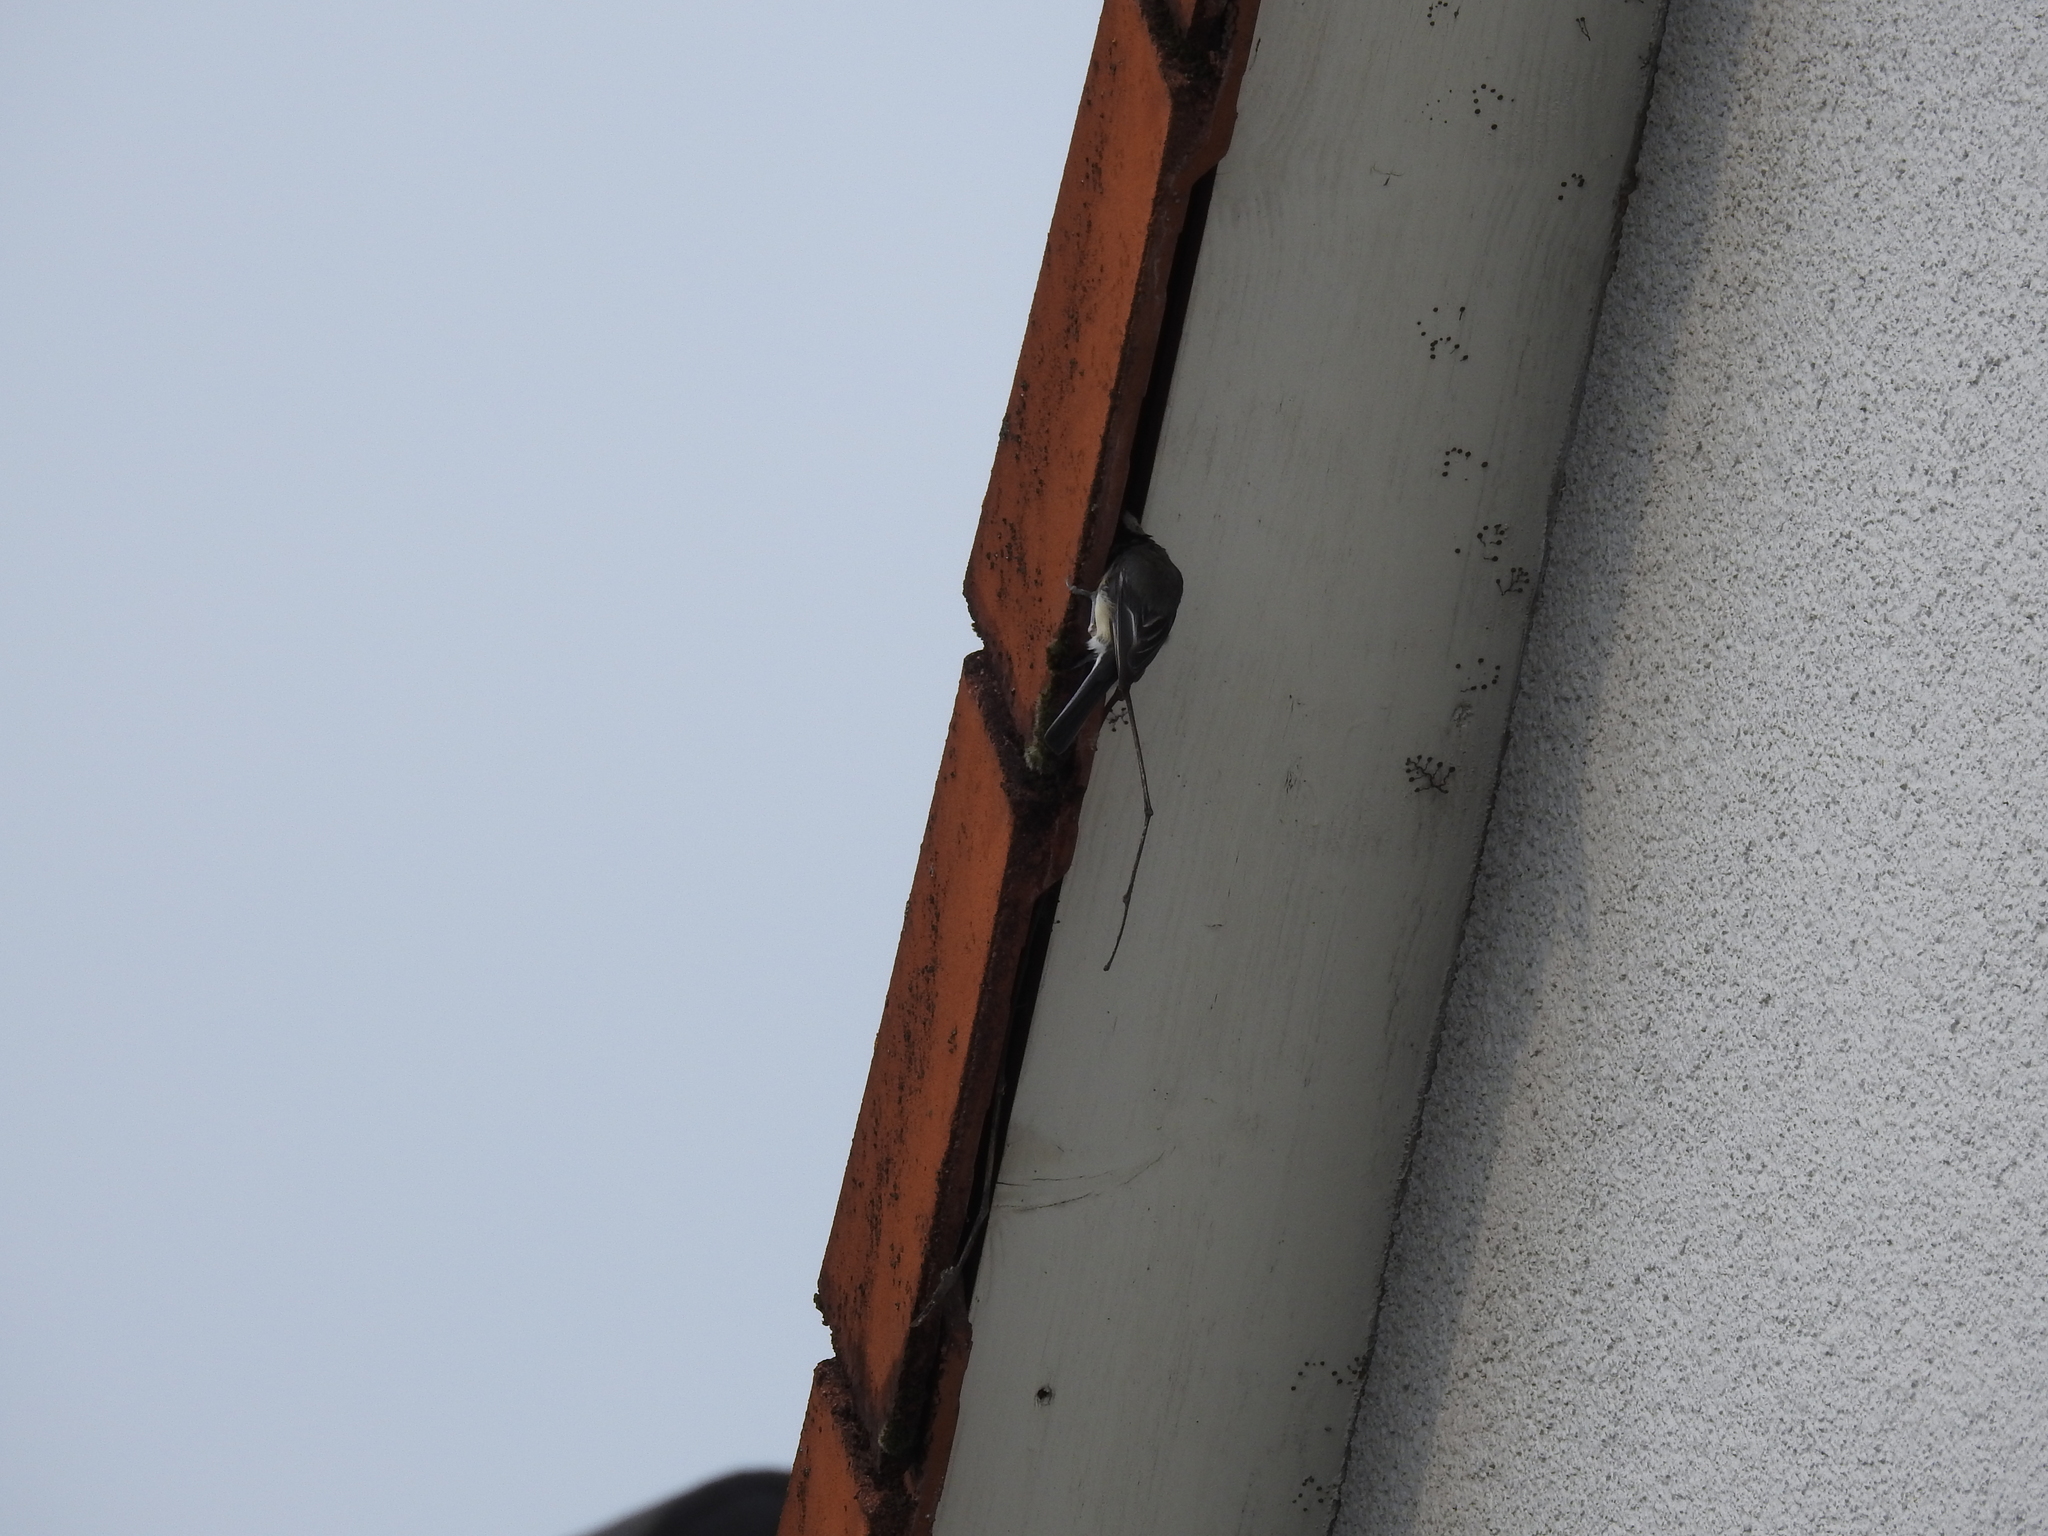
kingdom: Animalia
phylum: Chordata
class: Aves
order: Passeriformes
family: Paridae
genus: Parus
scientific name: Parus major
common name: Great tit
